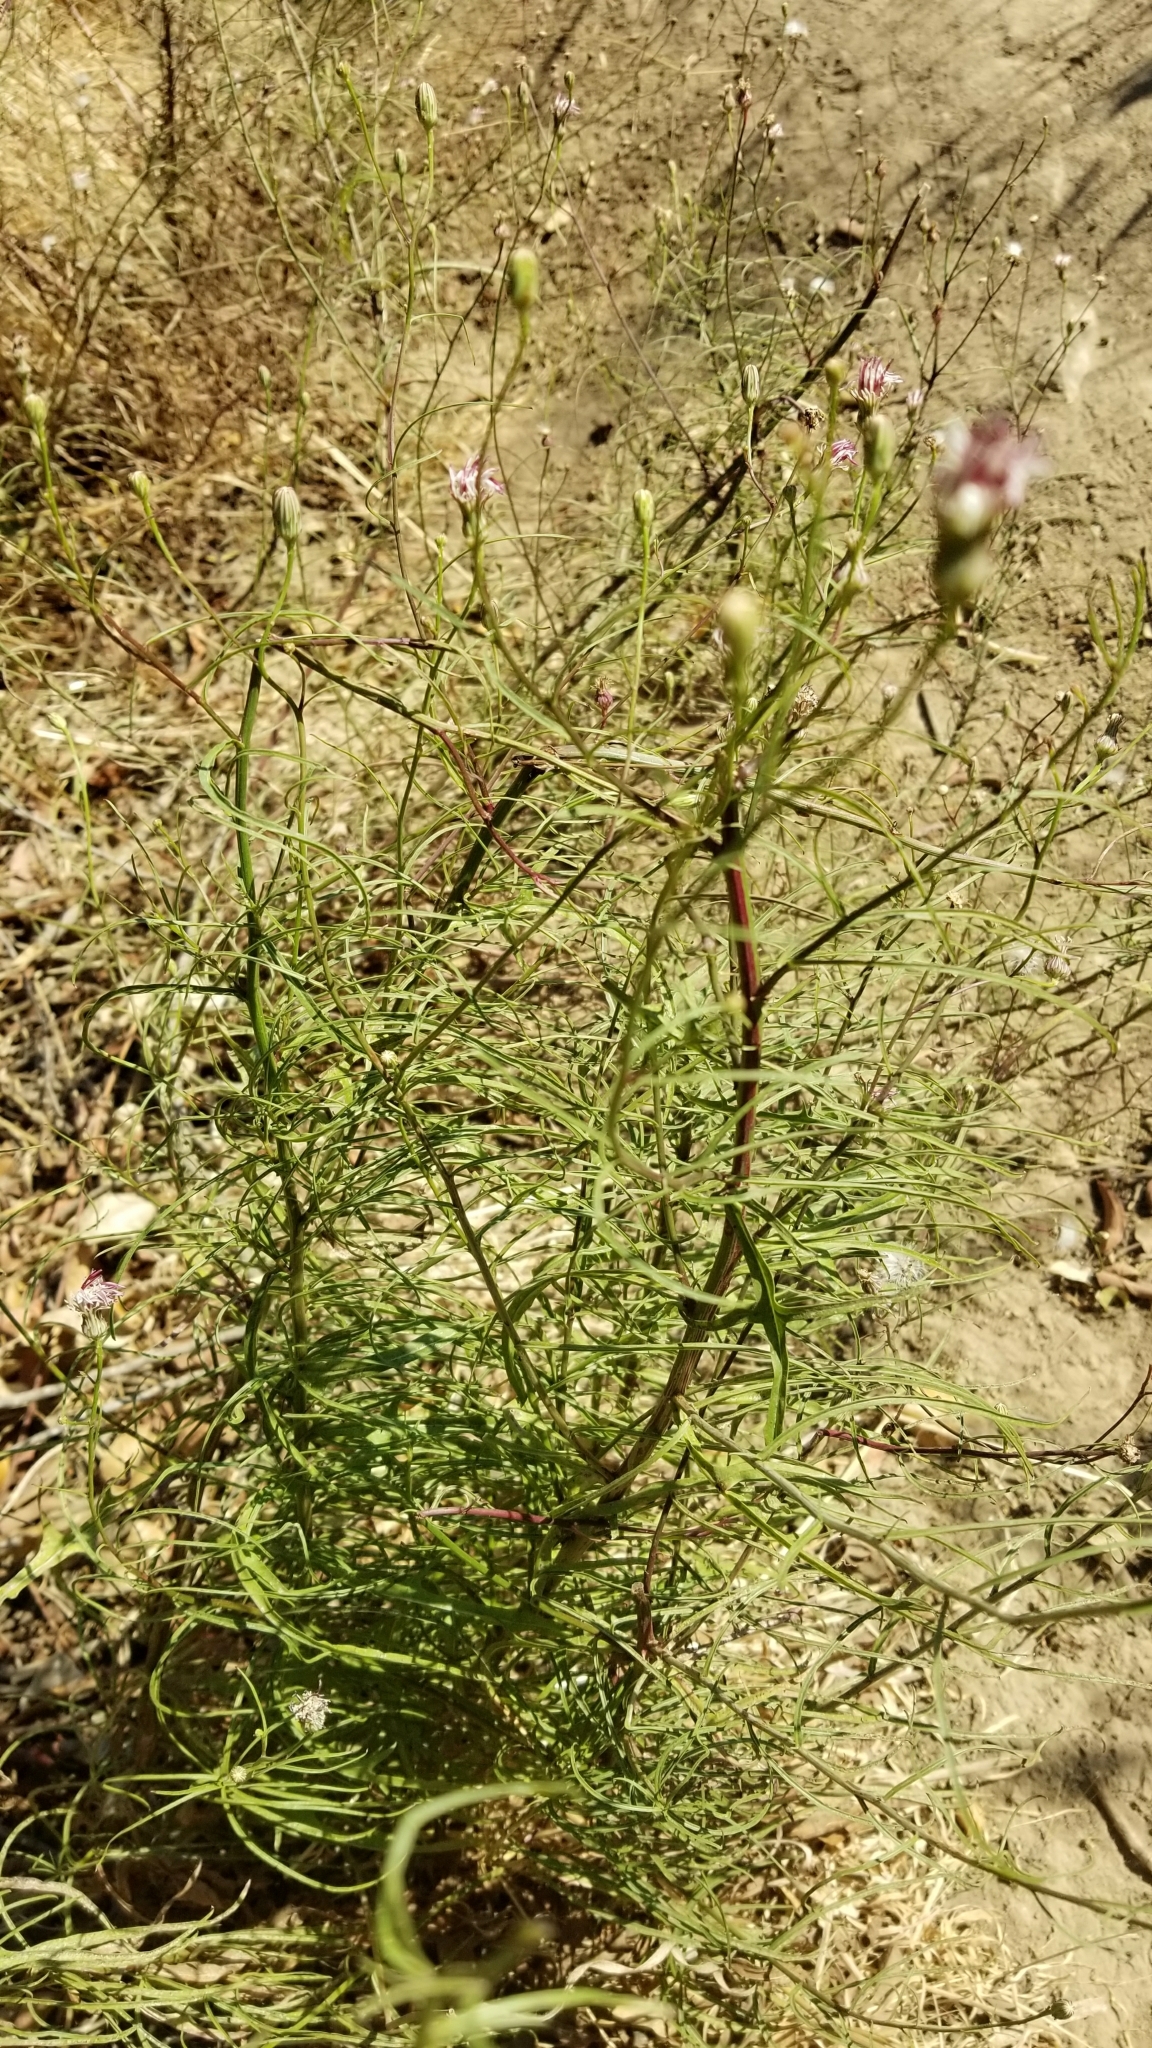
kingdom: Plantae
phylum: Tracheophyta
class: Magnoliopsida
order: Asterales
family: Asteraceae
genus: Malacothrix
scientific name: Malacothrix saxatilis
